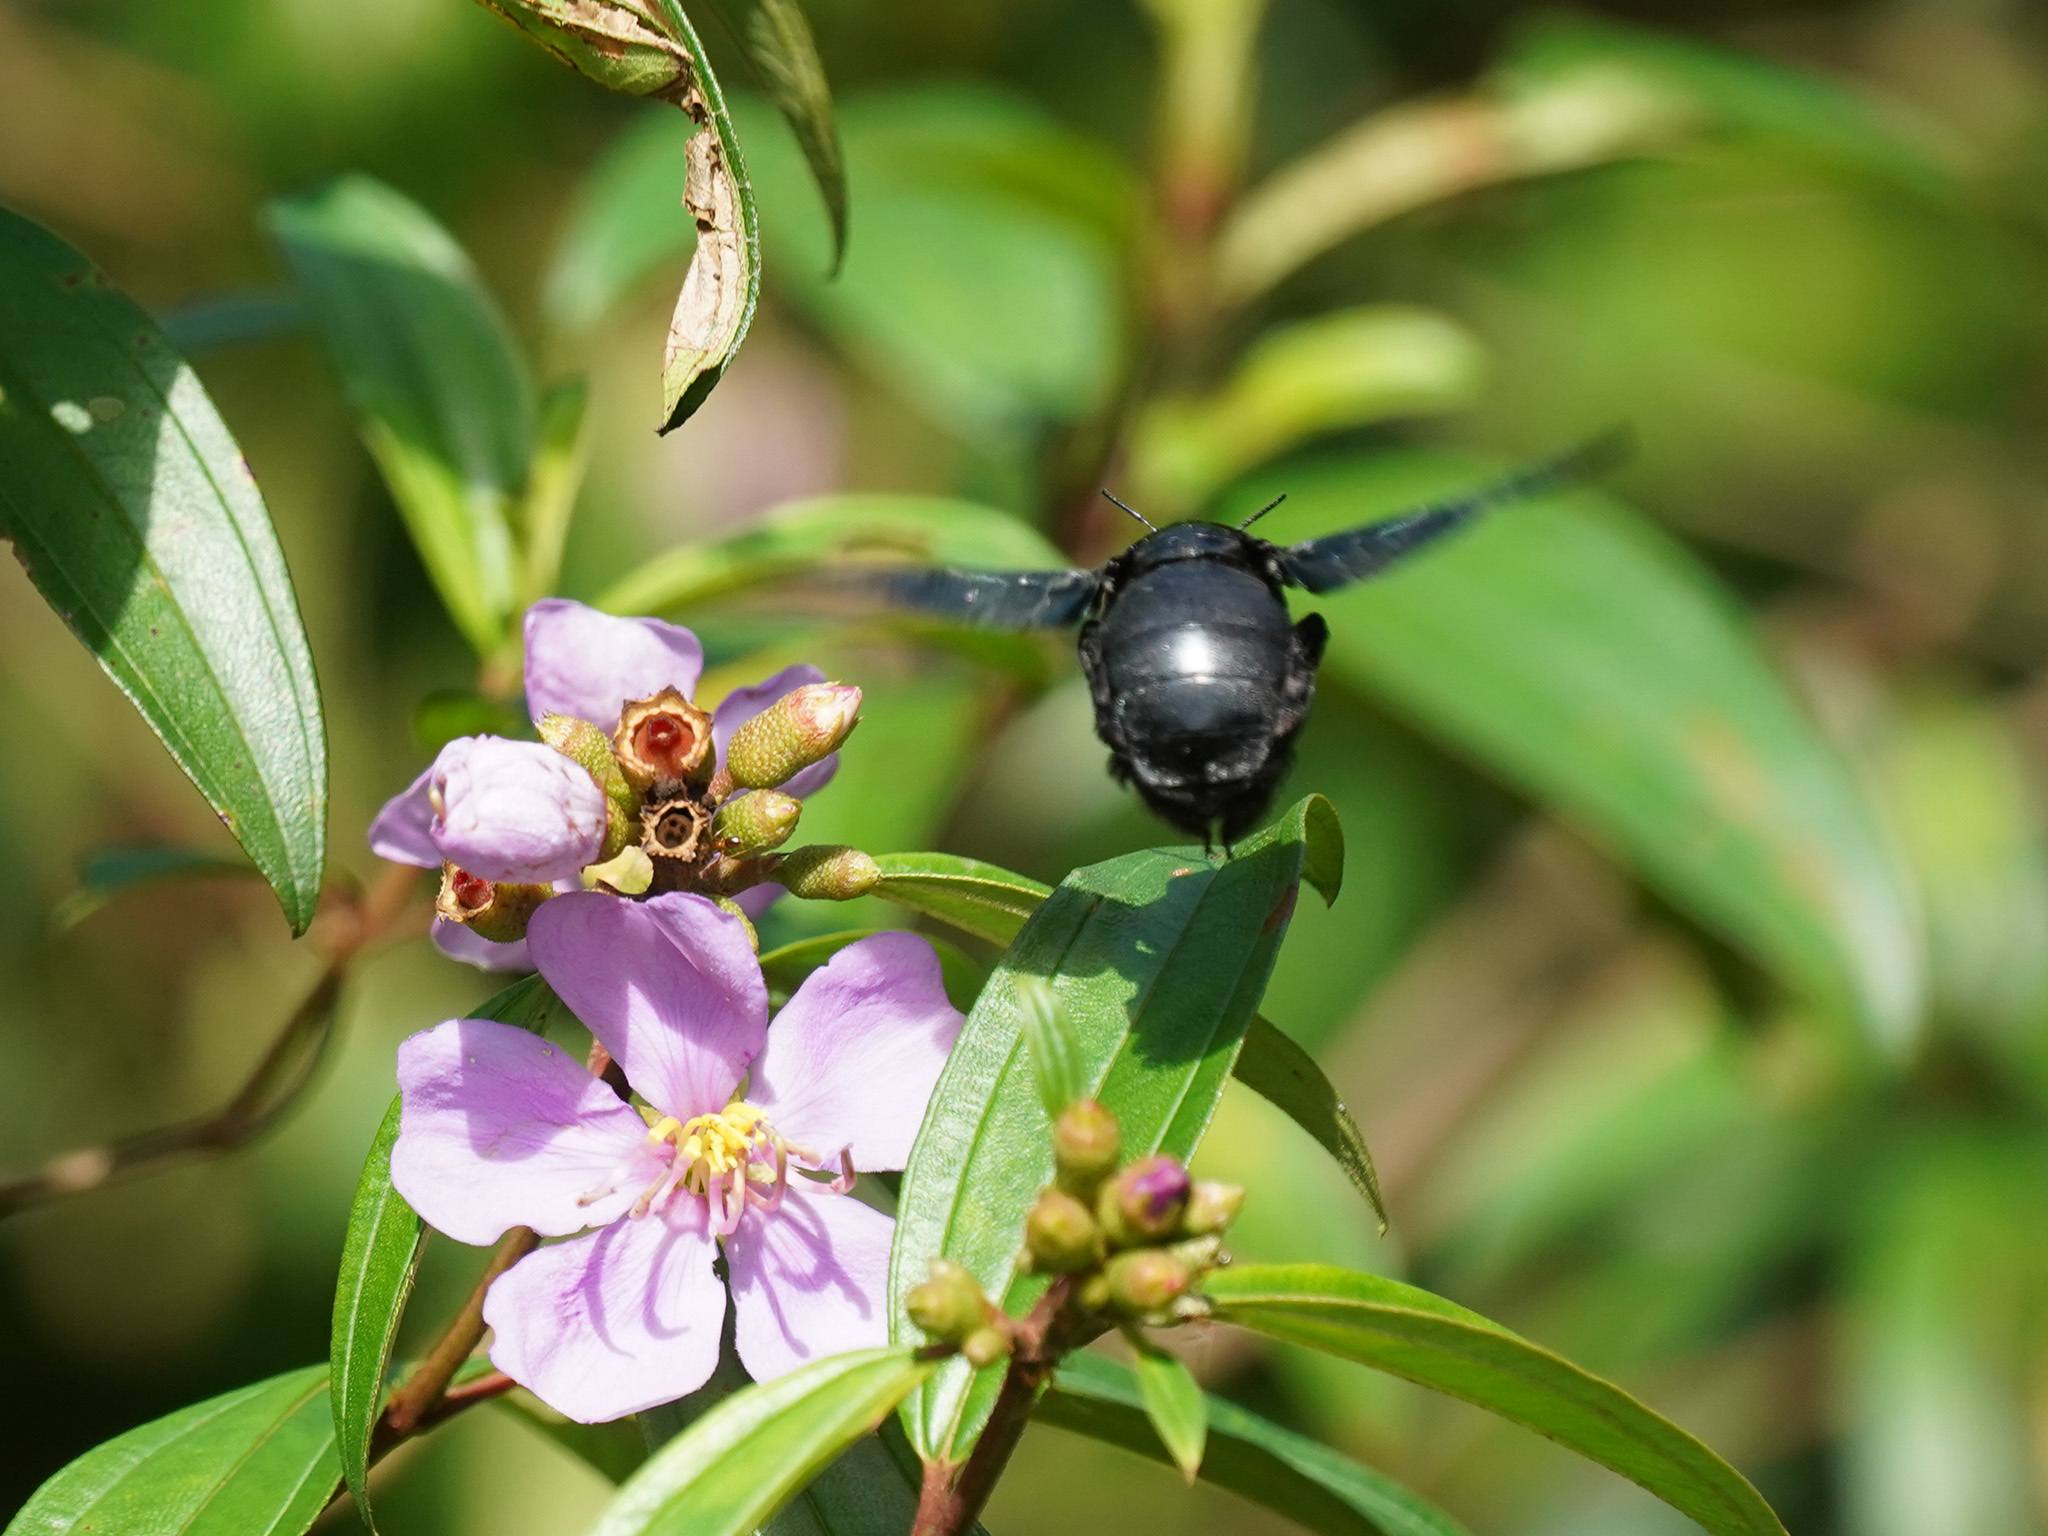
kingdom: Animalia
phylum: Arthropoda
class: Insecta
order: Hymenoptera
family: Apidae
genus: Xylocopa
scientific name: Xylocopa latipes
